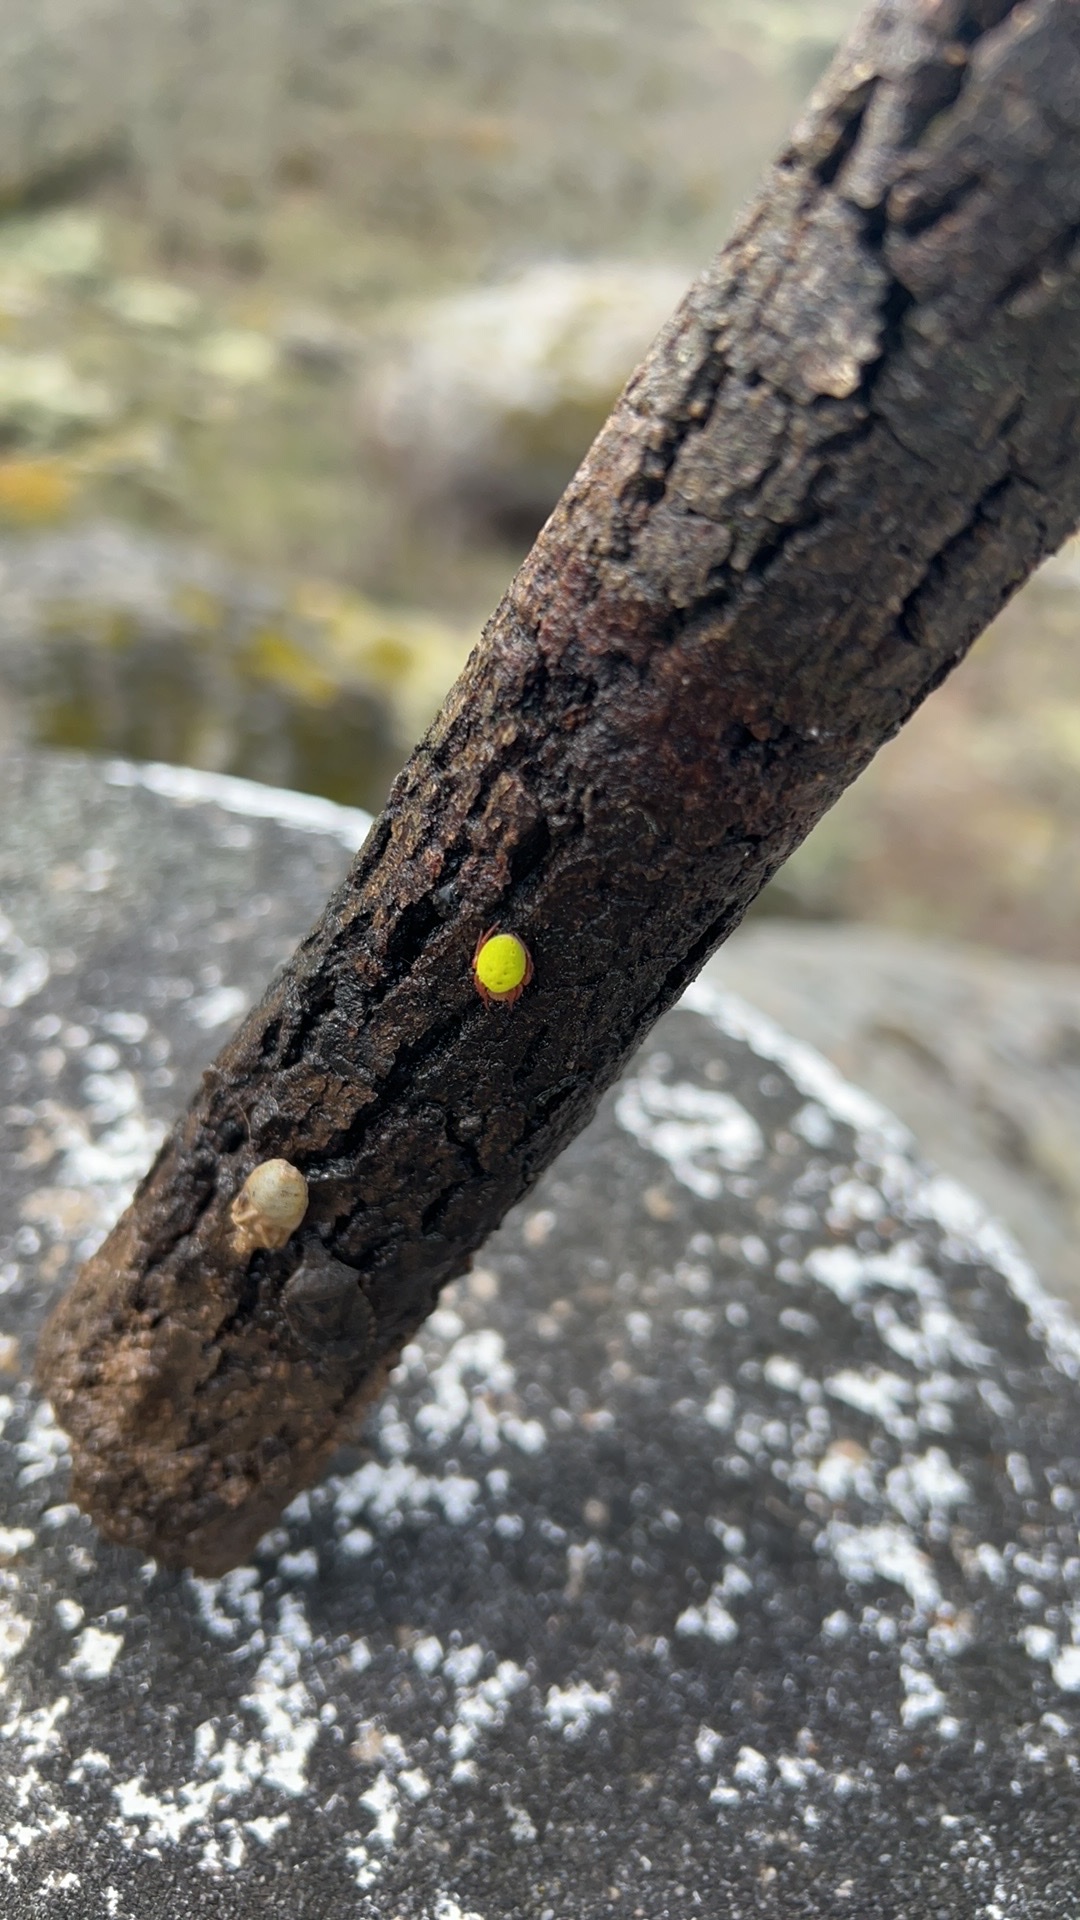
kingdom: Animalia
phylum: Arthropoda
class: Arachnida
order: Araneae
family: Araneidae
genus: Araniella
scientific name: Araniella
